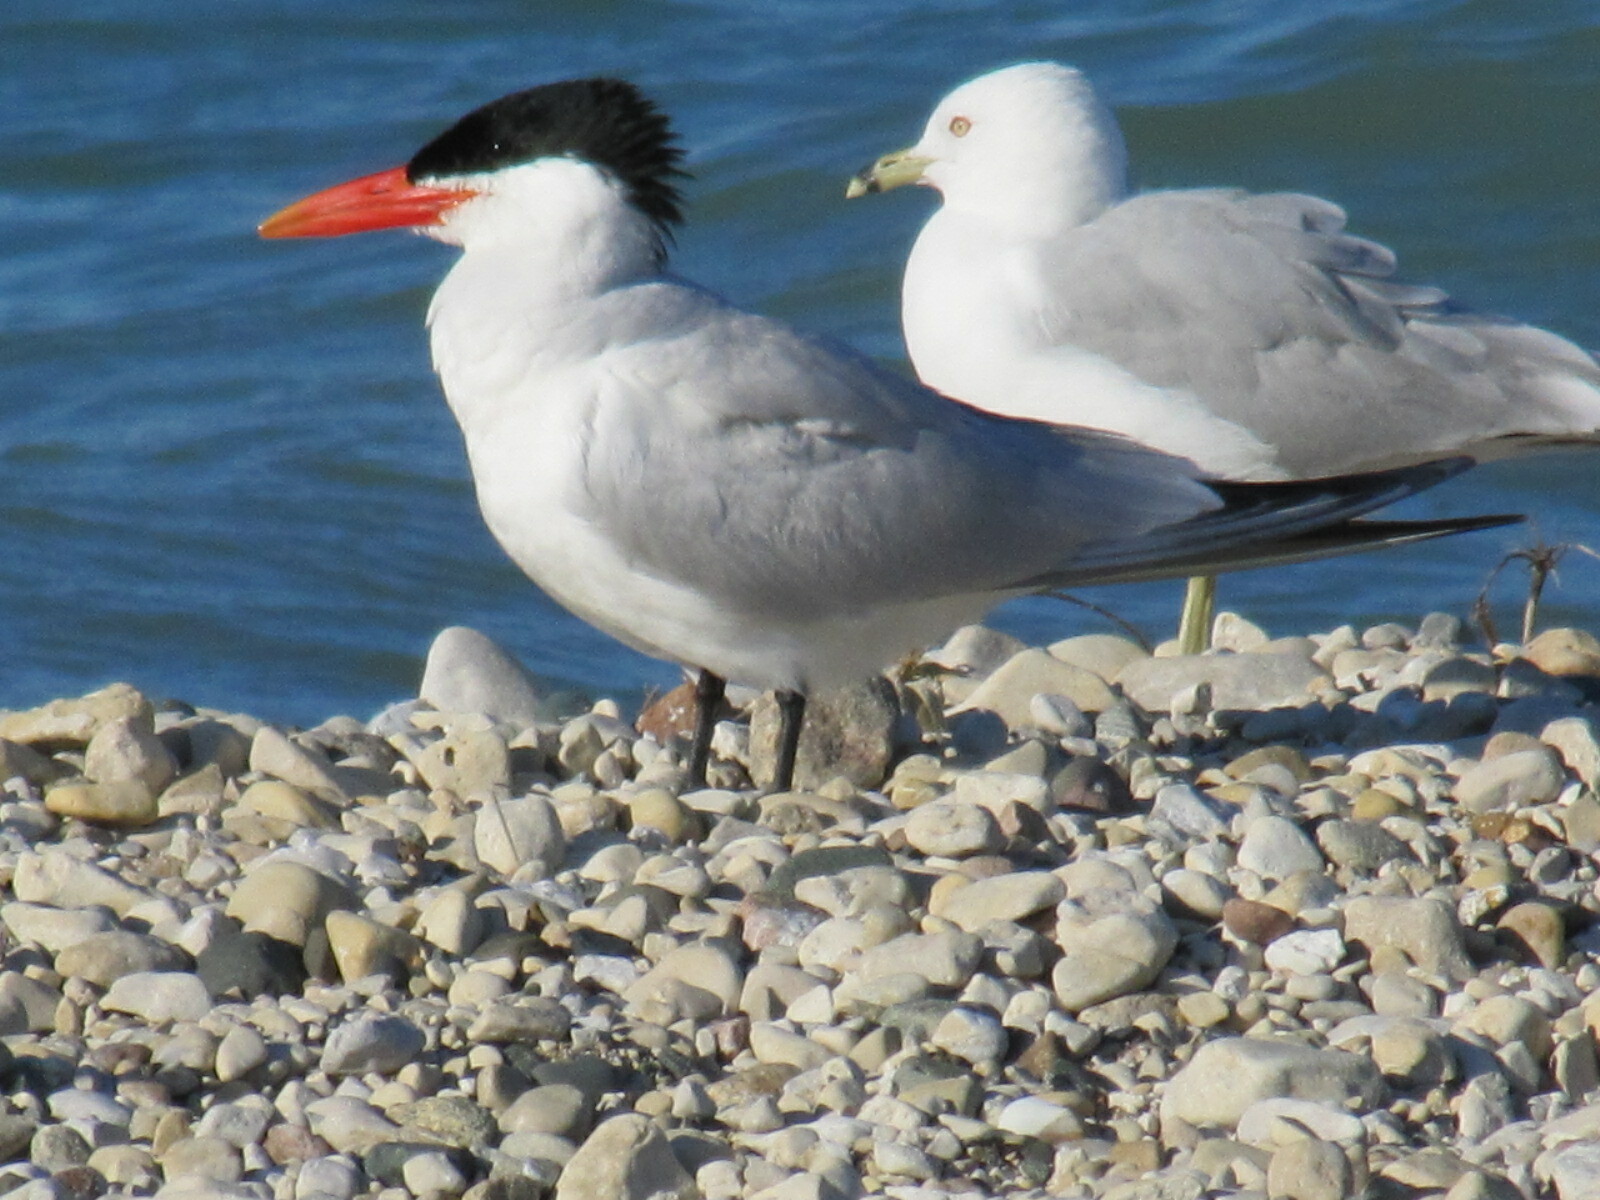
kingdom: Animalia
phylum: Chordata
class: Aves
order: Charadriiformes
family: Laridae
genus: Hydroprogne
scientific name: Hydroprogne caspia
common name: Caspian tern
